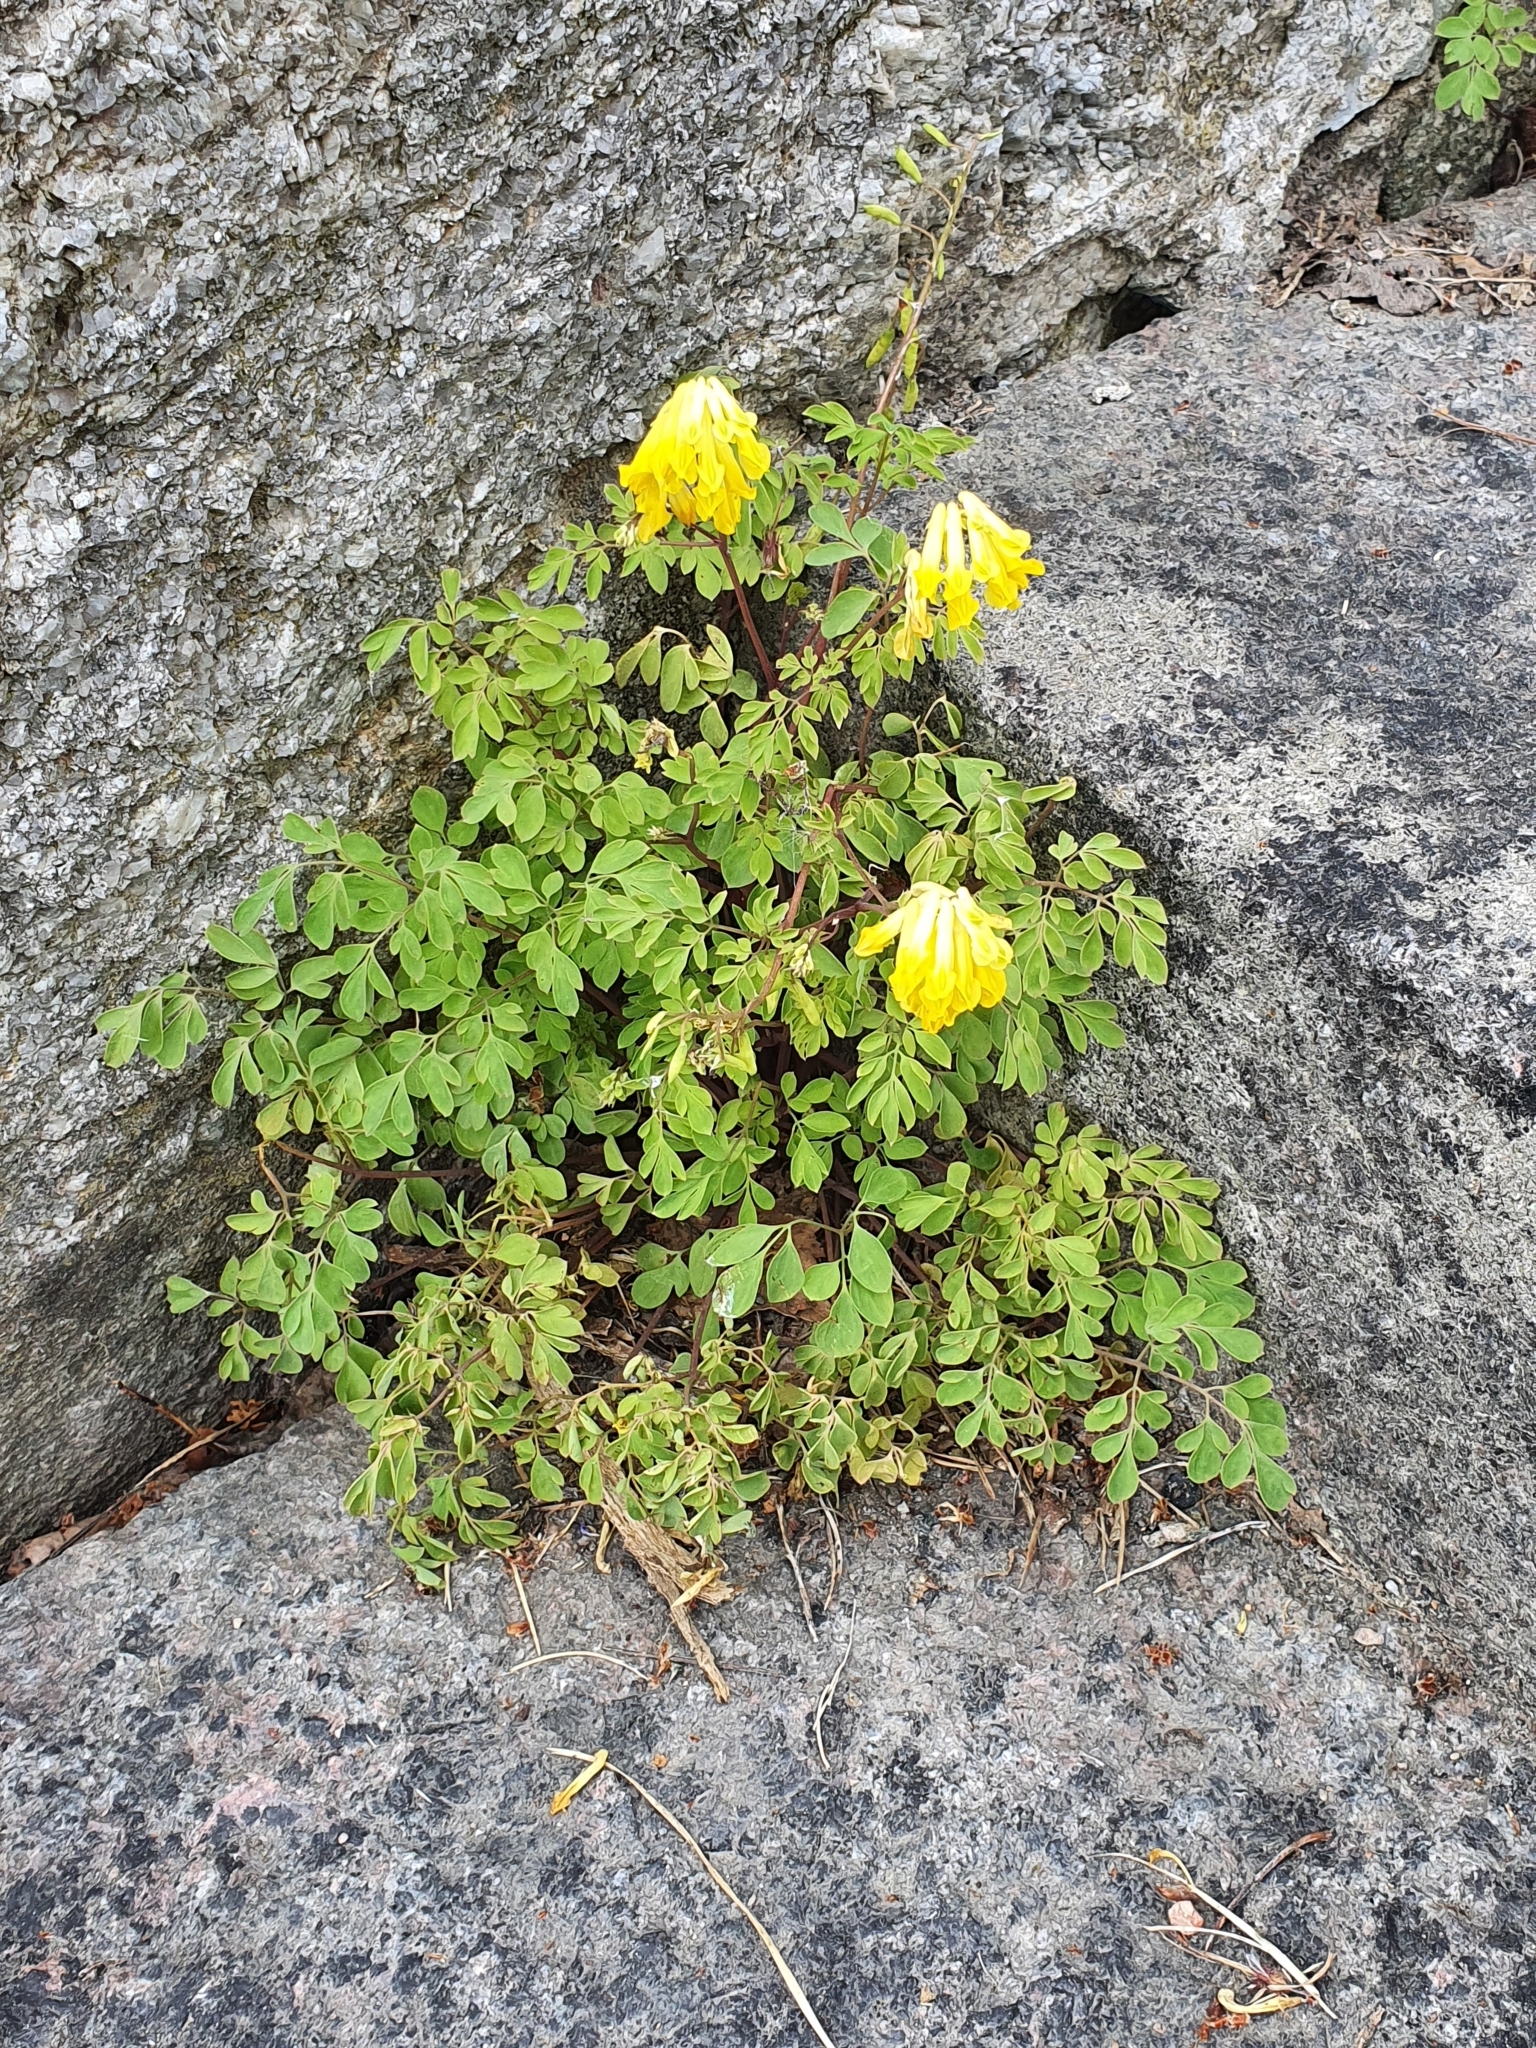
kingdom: Plantae
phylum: Tracheophyta
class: Magnoliopsida
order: Ranunculales
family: Papaveraceae
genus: Pseudofumaria
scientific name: Pseudofumaria lutea
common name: Yellow corydalis
